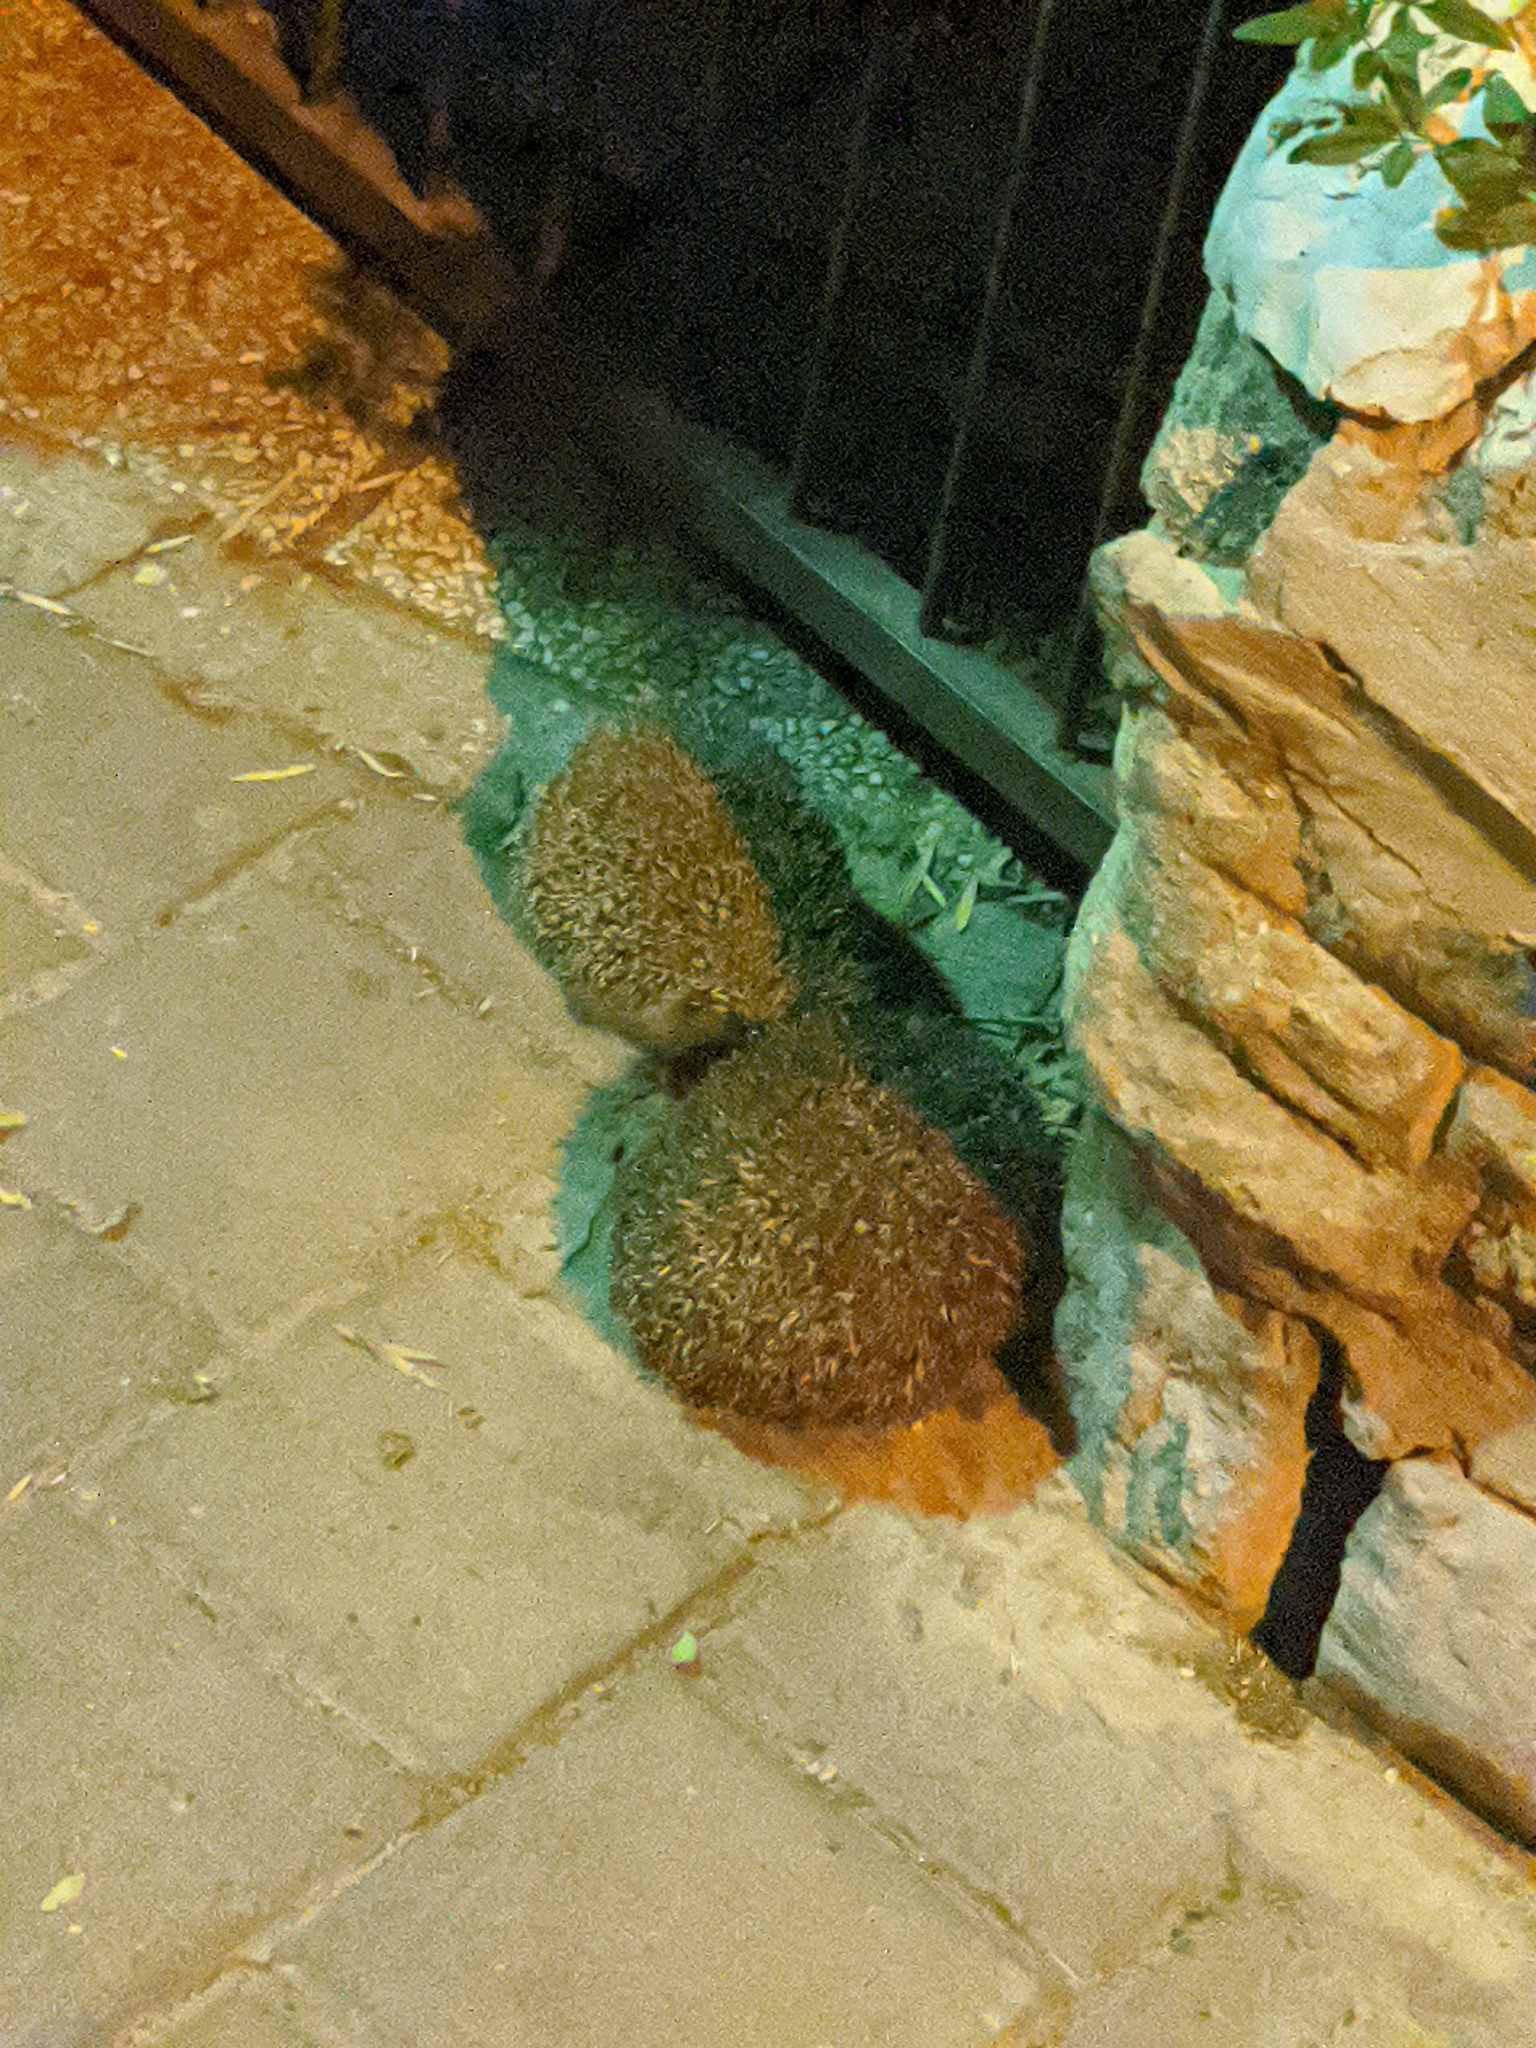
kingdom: Animalia
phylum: Chordata
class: Mammalia
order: Erinaceomorpha
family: Erinaceidae
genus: Erinaceus
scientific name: Erinaceus concolor
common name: Southern white-breasted hedgehog
